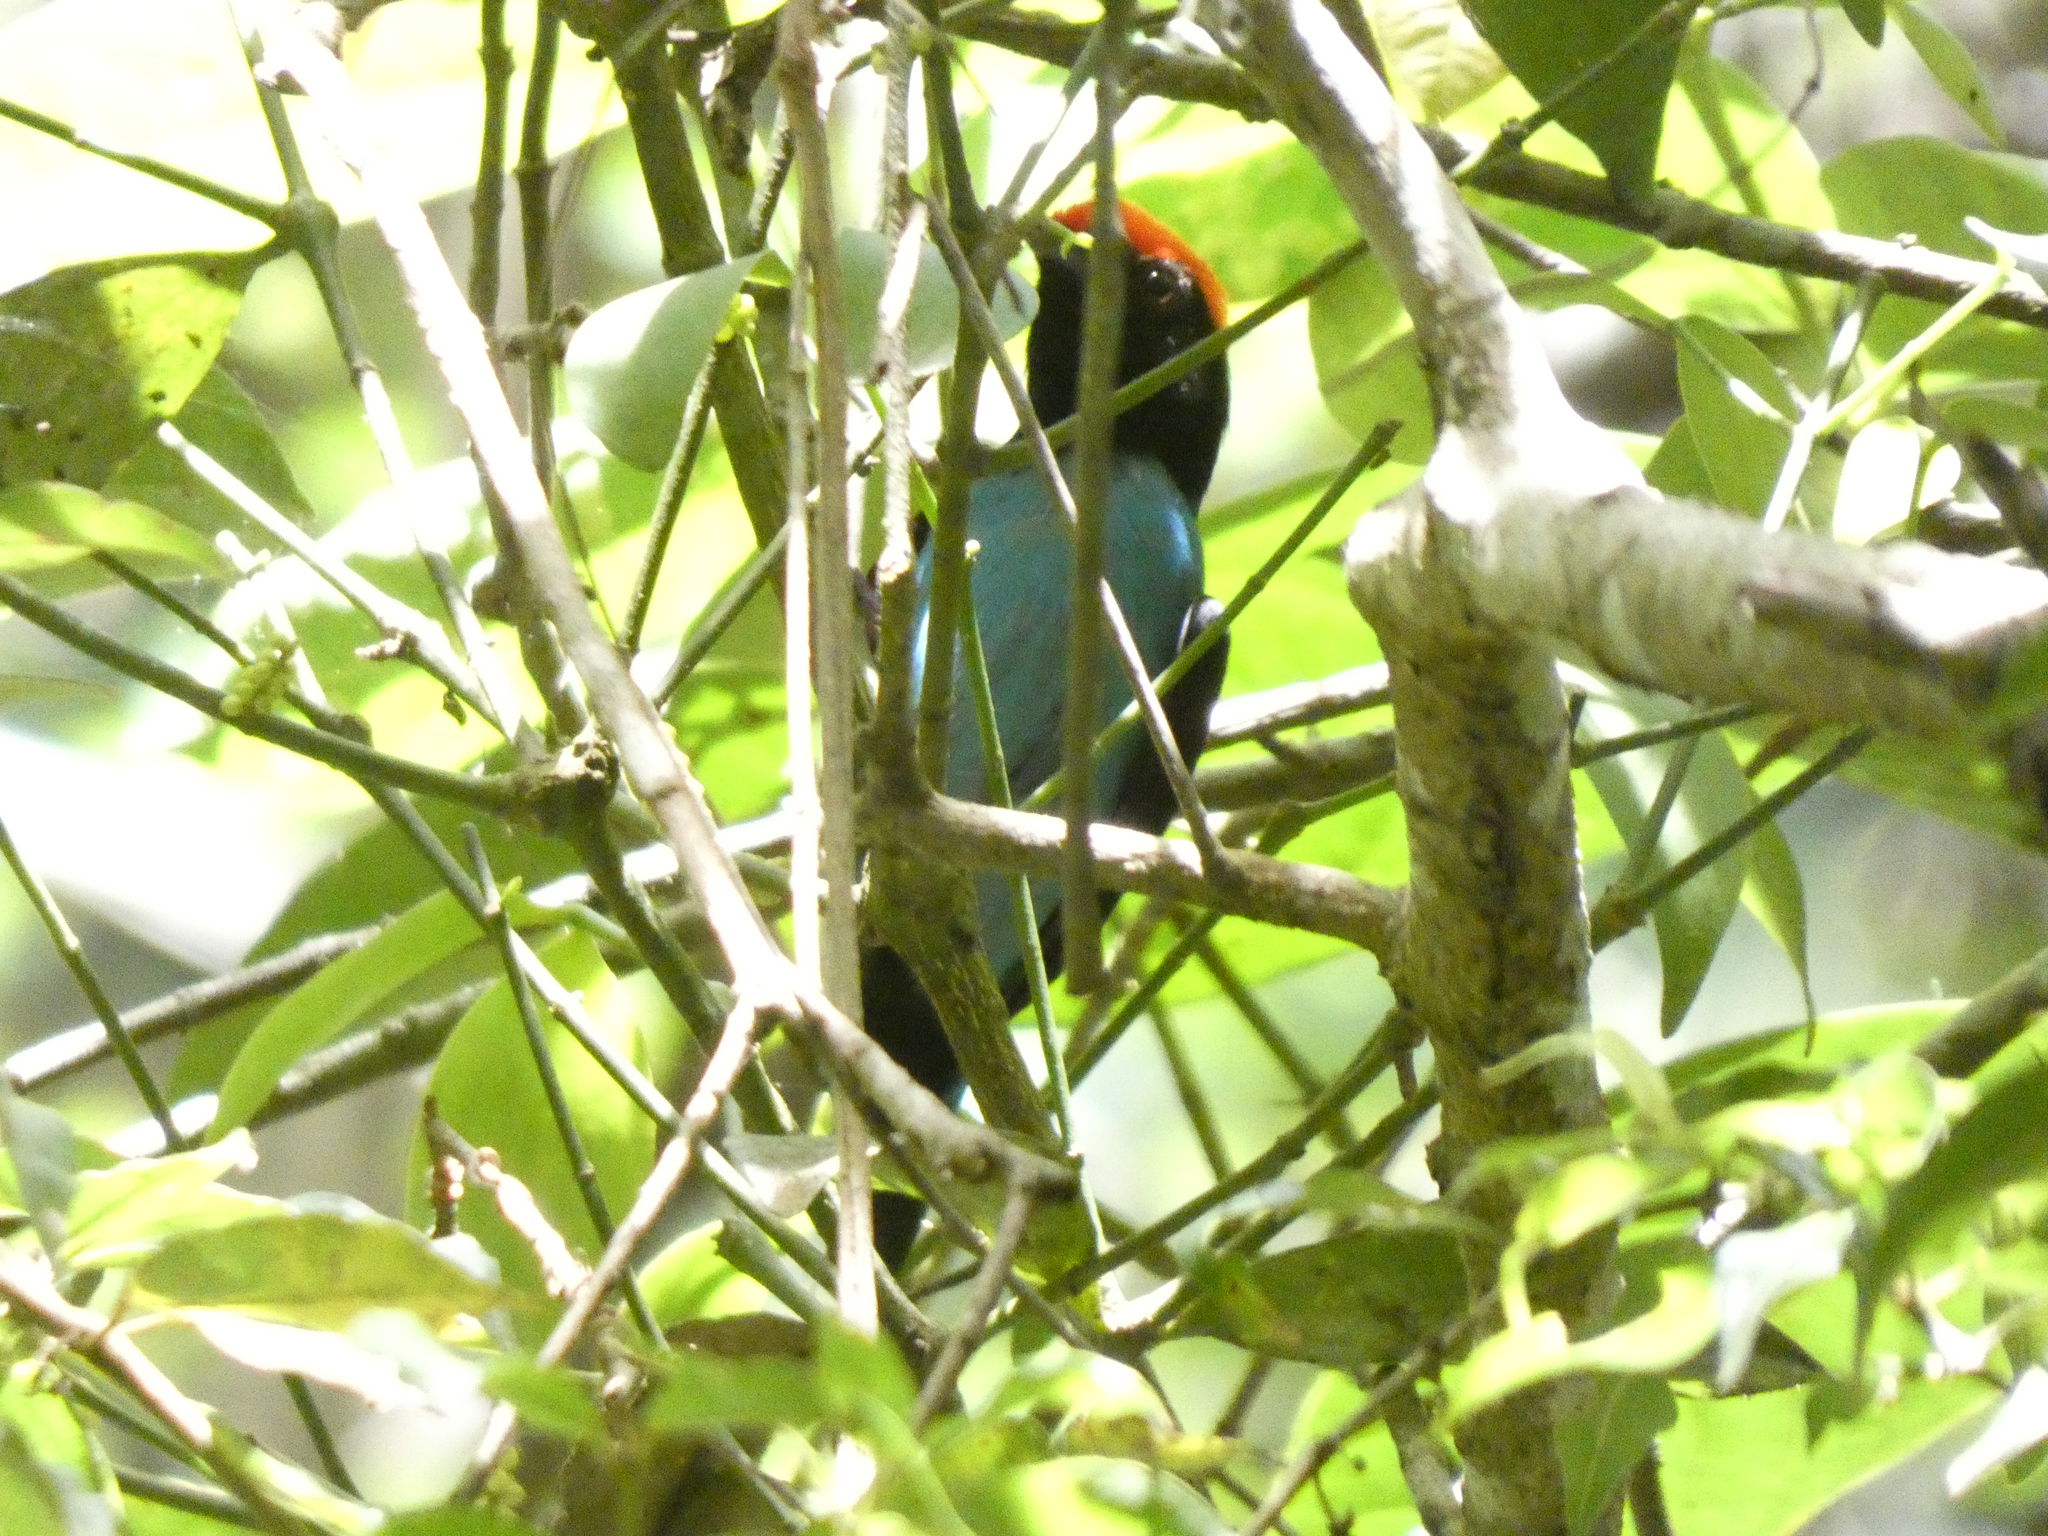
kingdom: Animalia
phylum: Chordata
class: Aves
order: Passeriformes
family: Pipridae
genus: Chiroxiphia
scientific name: Chiroxiphia caudata
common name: Blue manakin
